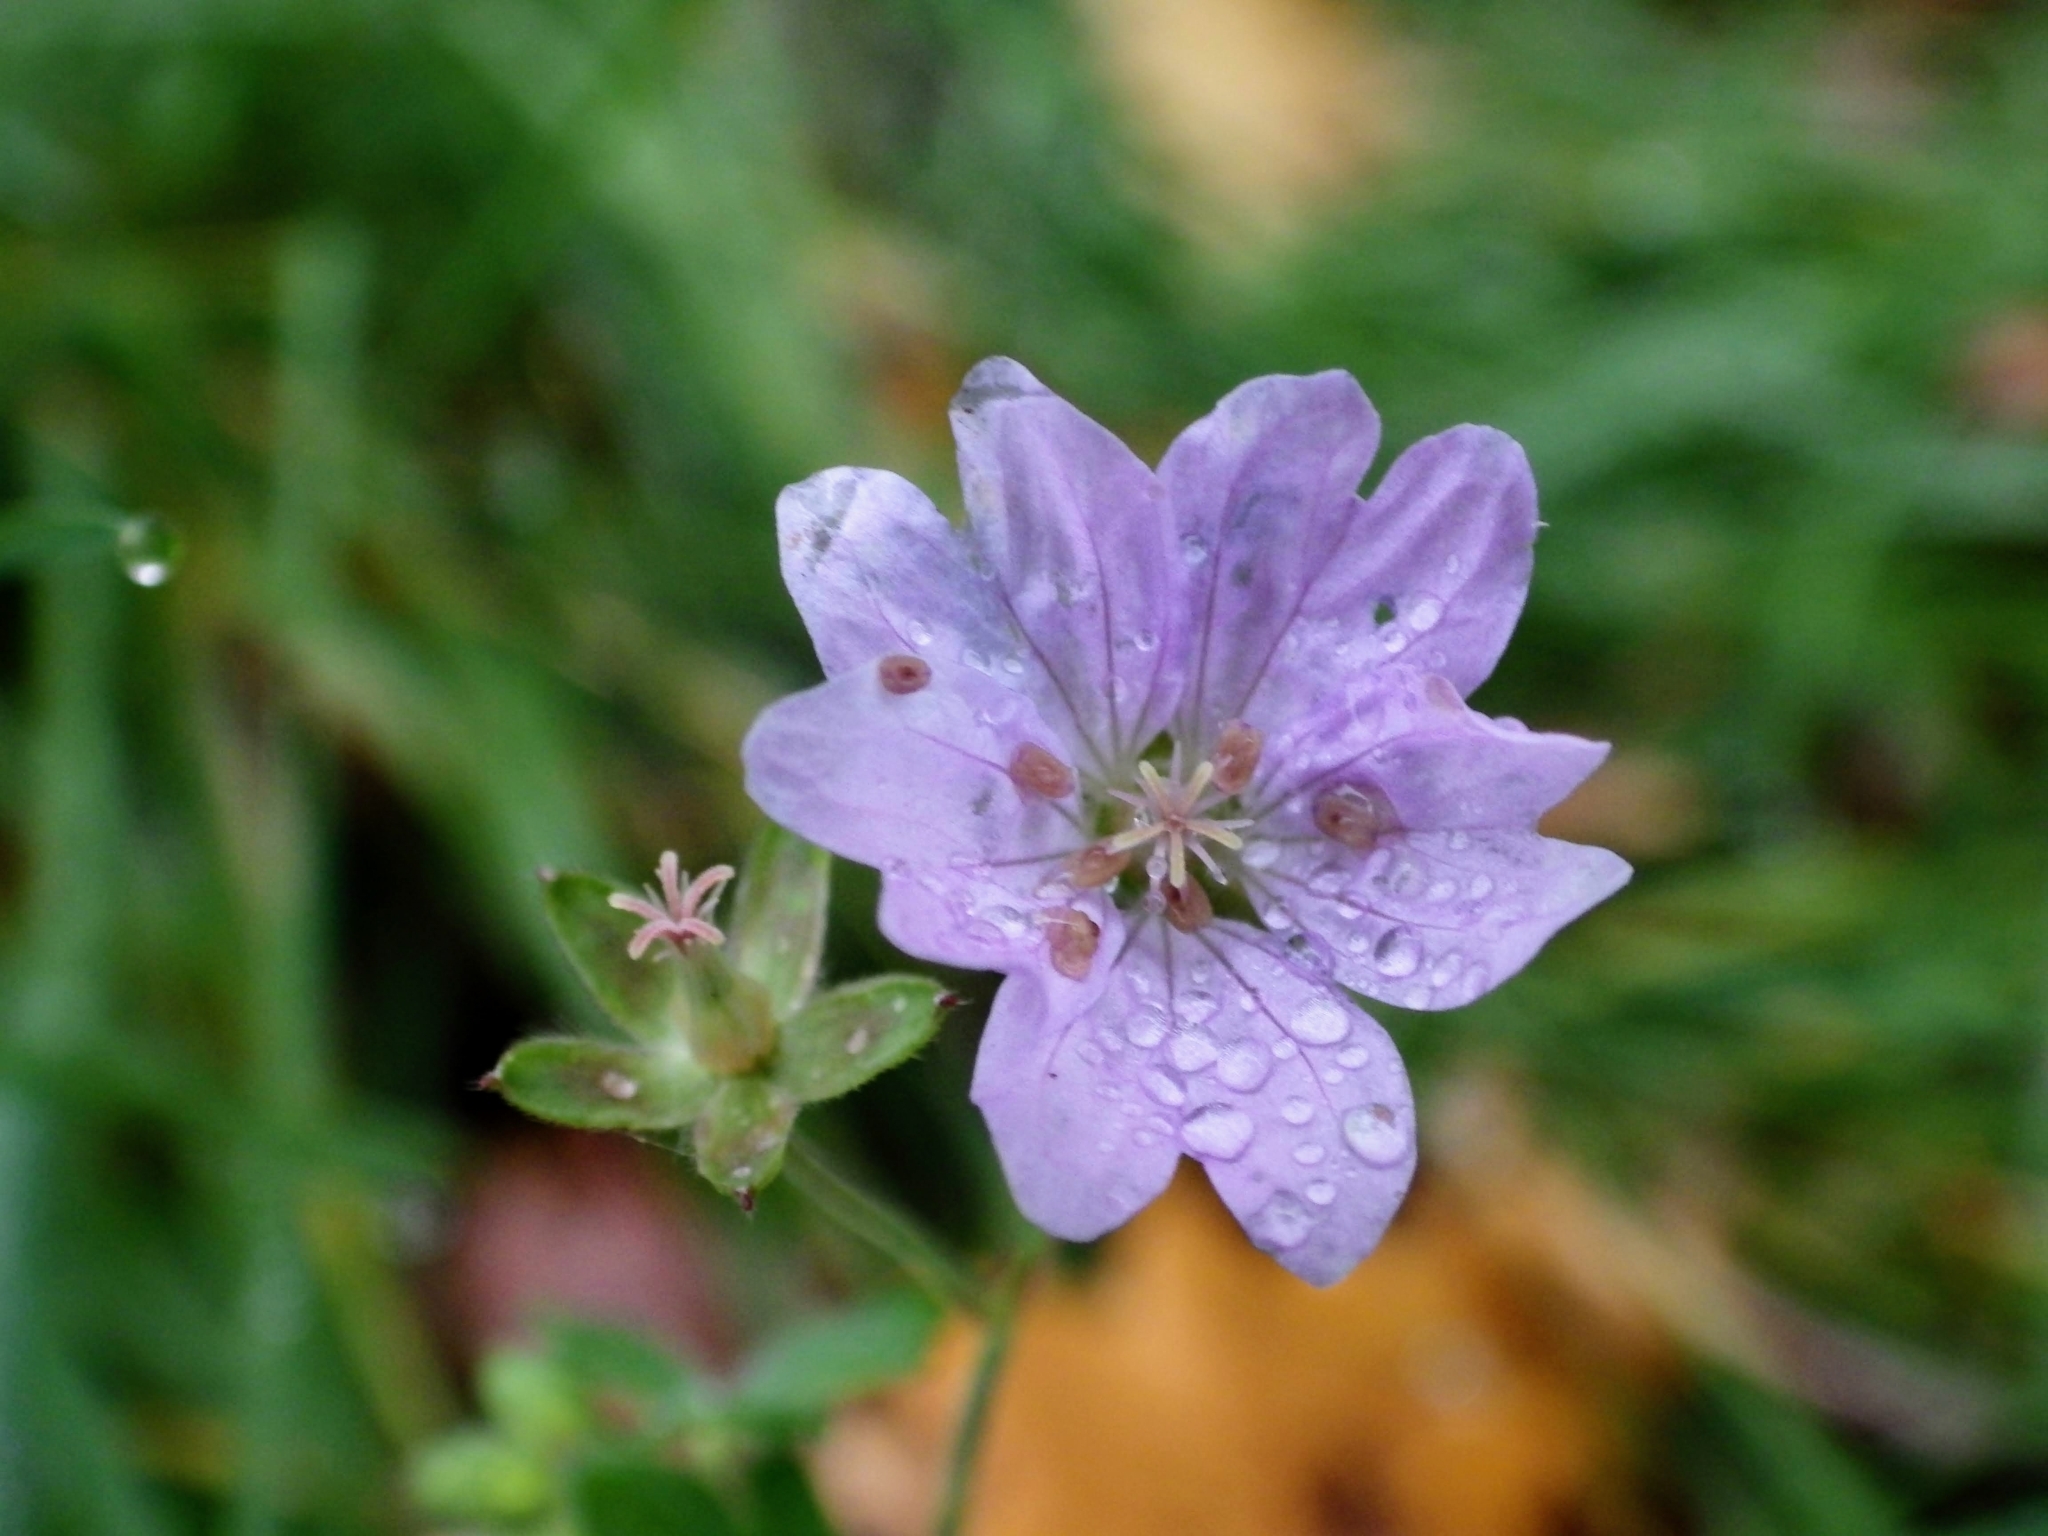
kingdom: Plantae
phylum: Tracheophyta
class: Magnoliopsida
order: Geraniales
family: Geraniaceae
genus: Geranium
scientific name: Geranium pyrenaicum
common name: Hedgerow crane's-bill
